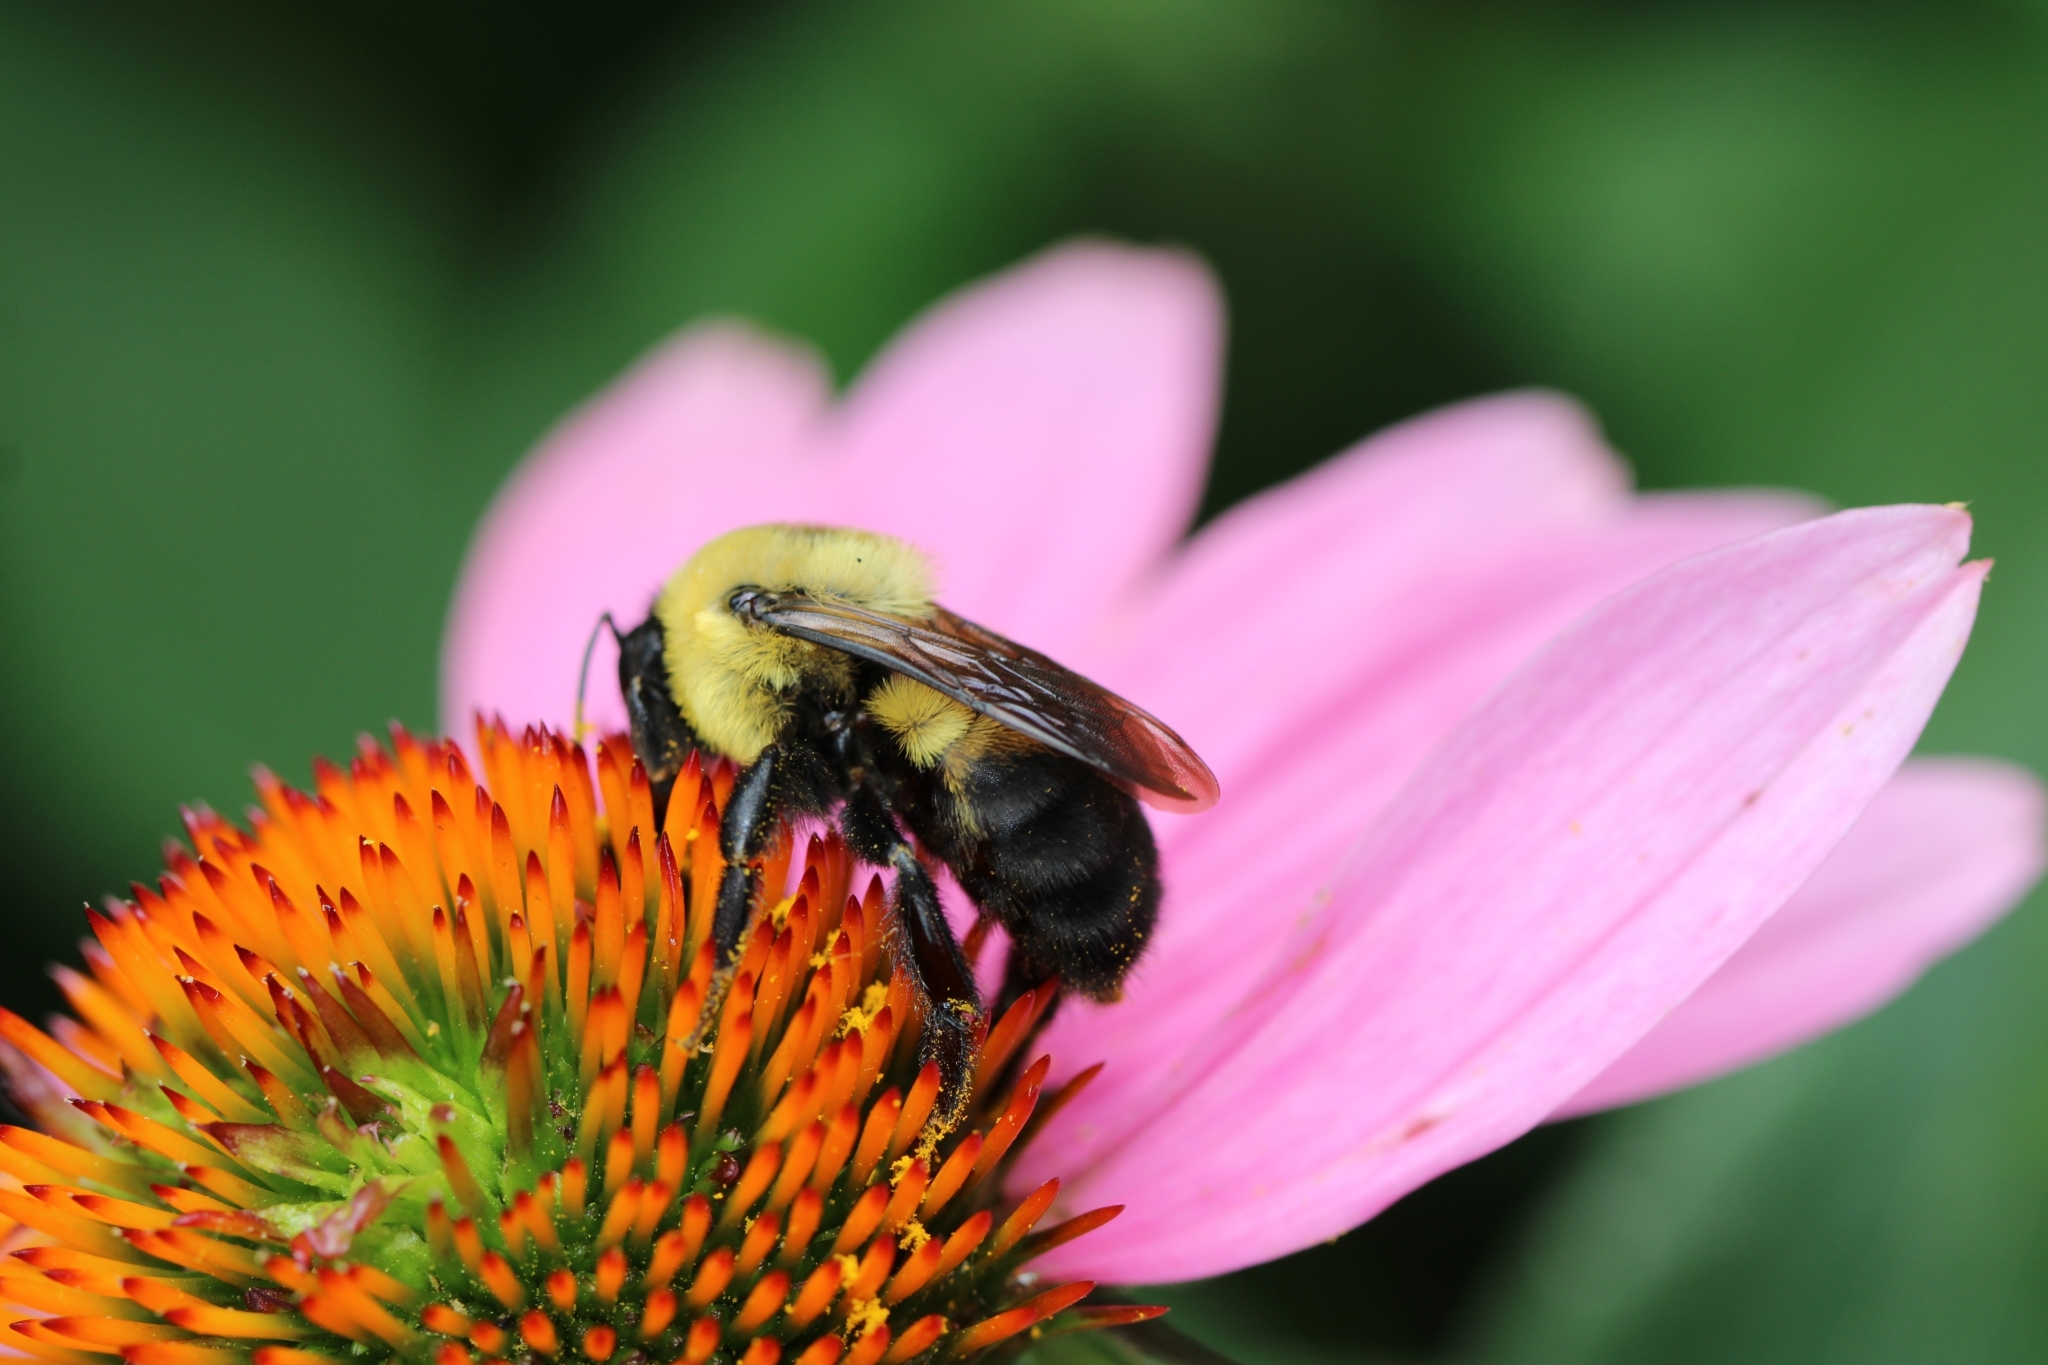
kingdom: Animalia
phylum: Arthropoda
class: Insecta
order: Hymenoptera
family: Apidae
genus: Bombus
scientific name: Bombus griseocollis
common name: Brown-belted bumble bee
